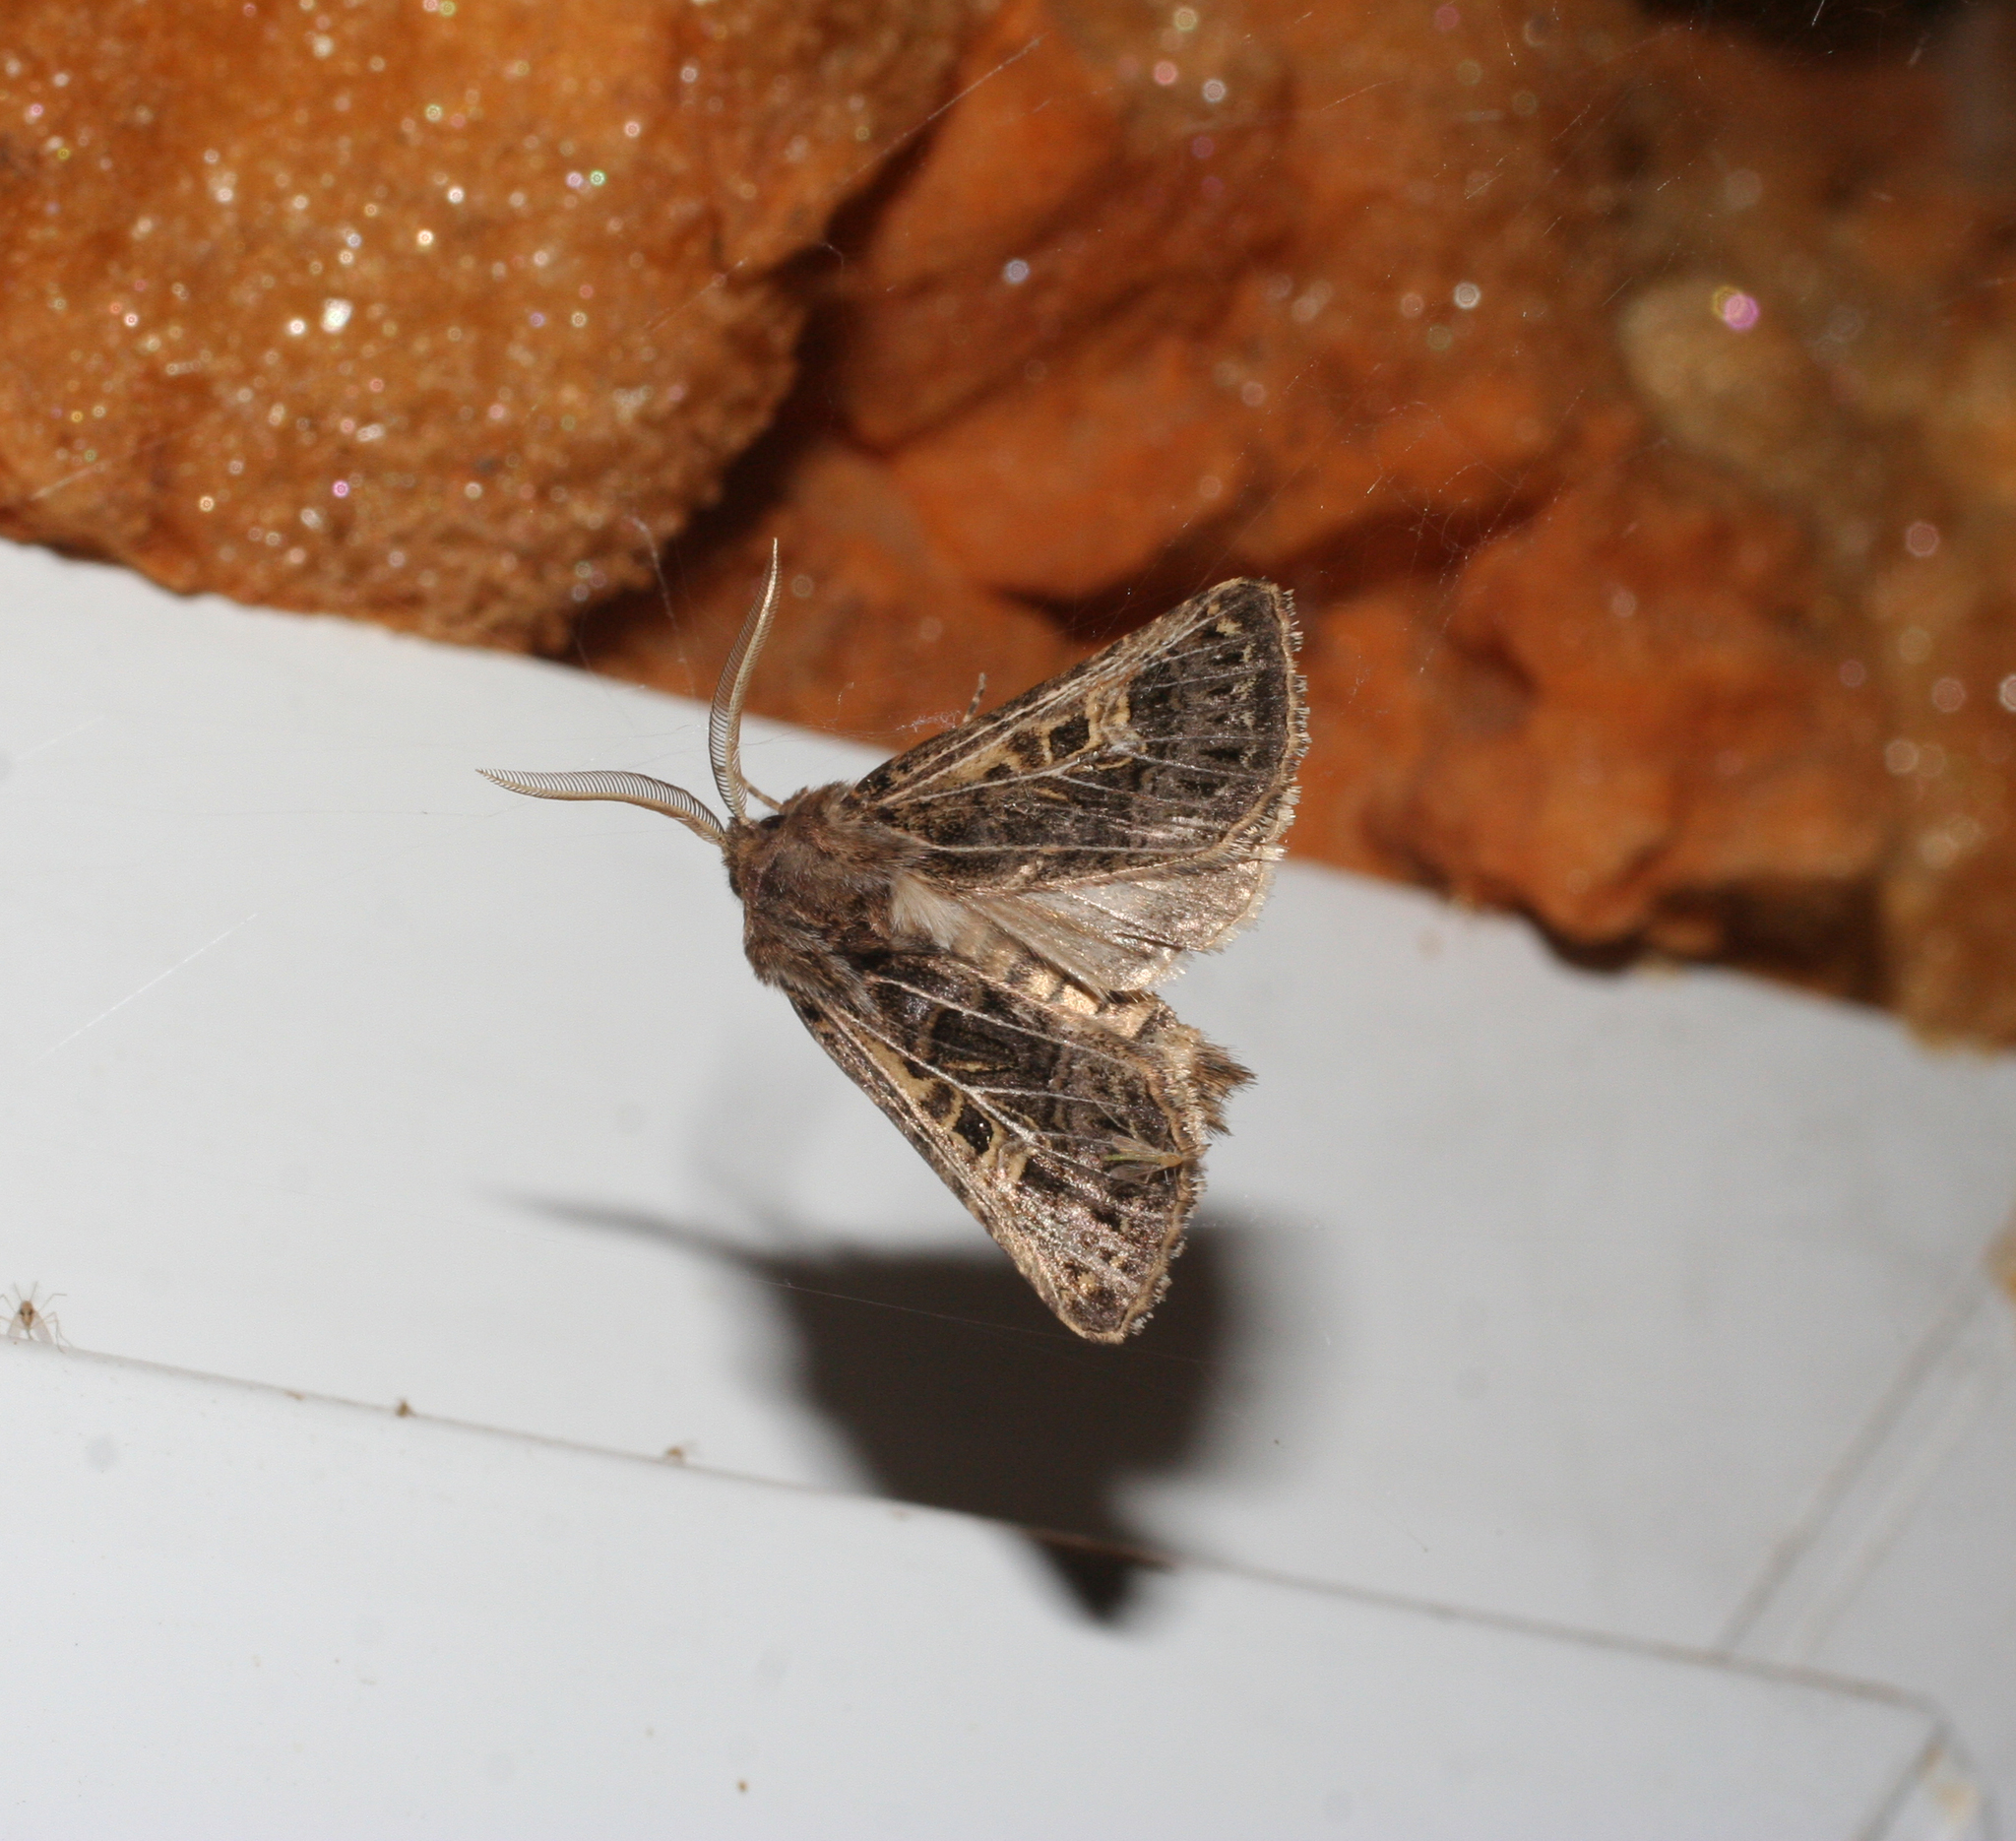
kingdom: Animalia
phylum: Arthropoda
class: Insecta
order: Lepidoptera
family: Noctuidae
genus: Tholera
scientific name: Tholera decimalis
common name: Feathered gothic
